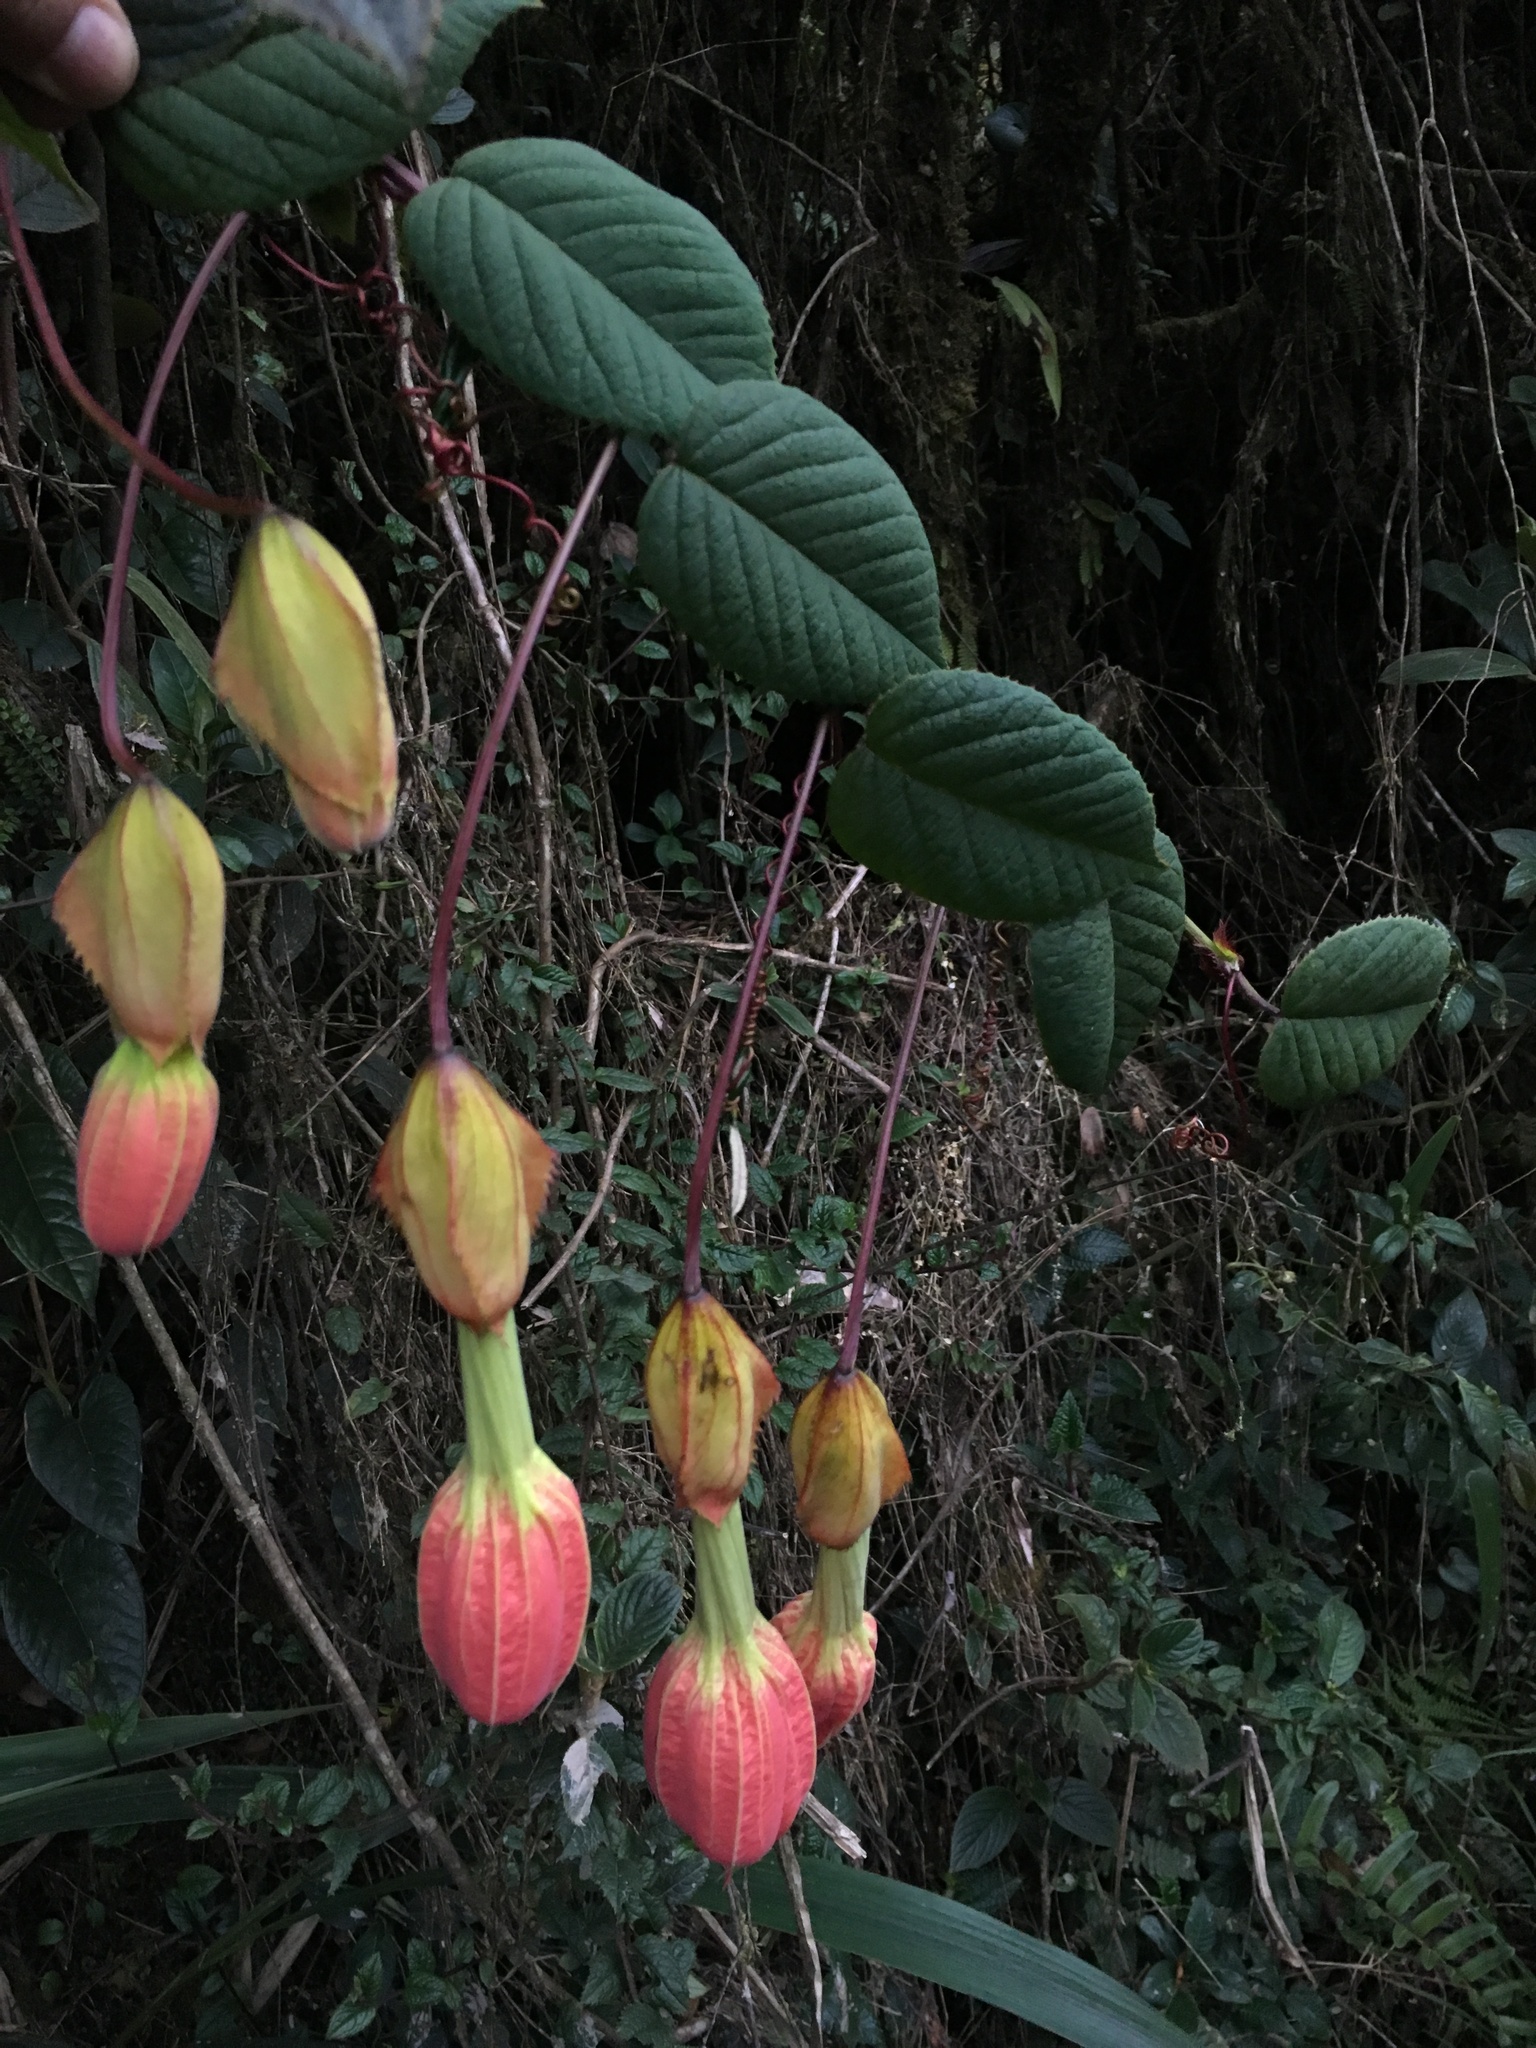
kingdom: Plantae
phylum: Tracheophyta
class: Magnoliopsida
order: Malpighiales
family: Passifloraceae
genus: Passiflora
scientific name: Passiflora fimbriatistipula
